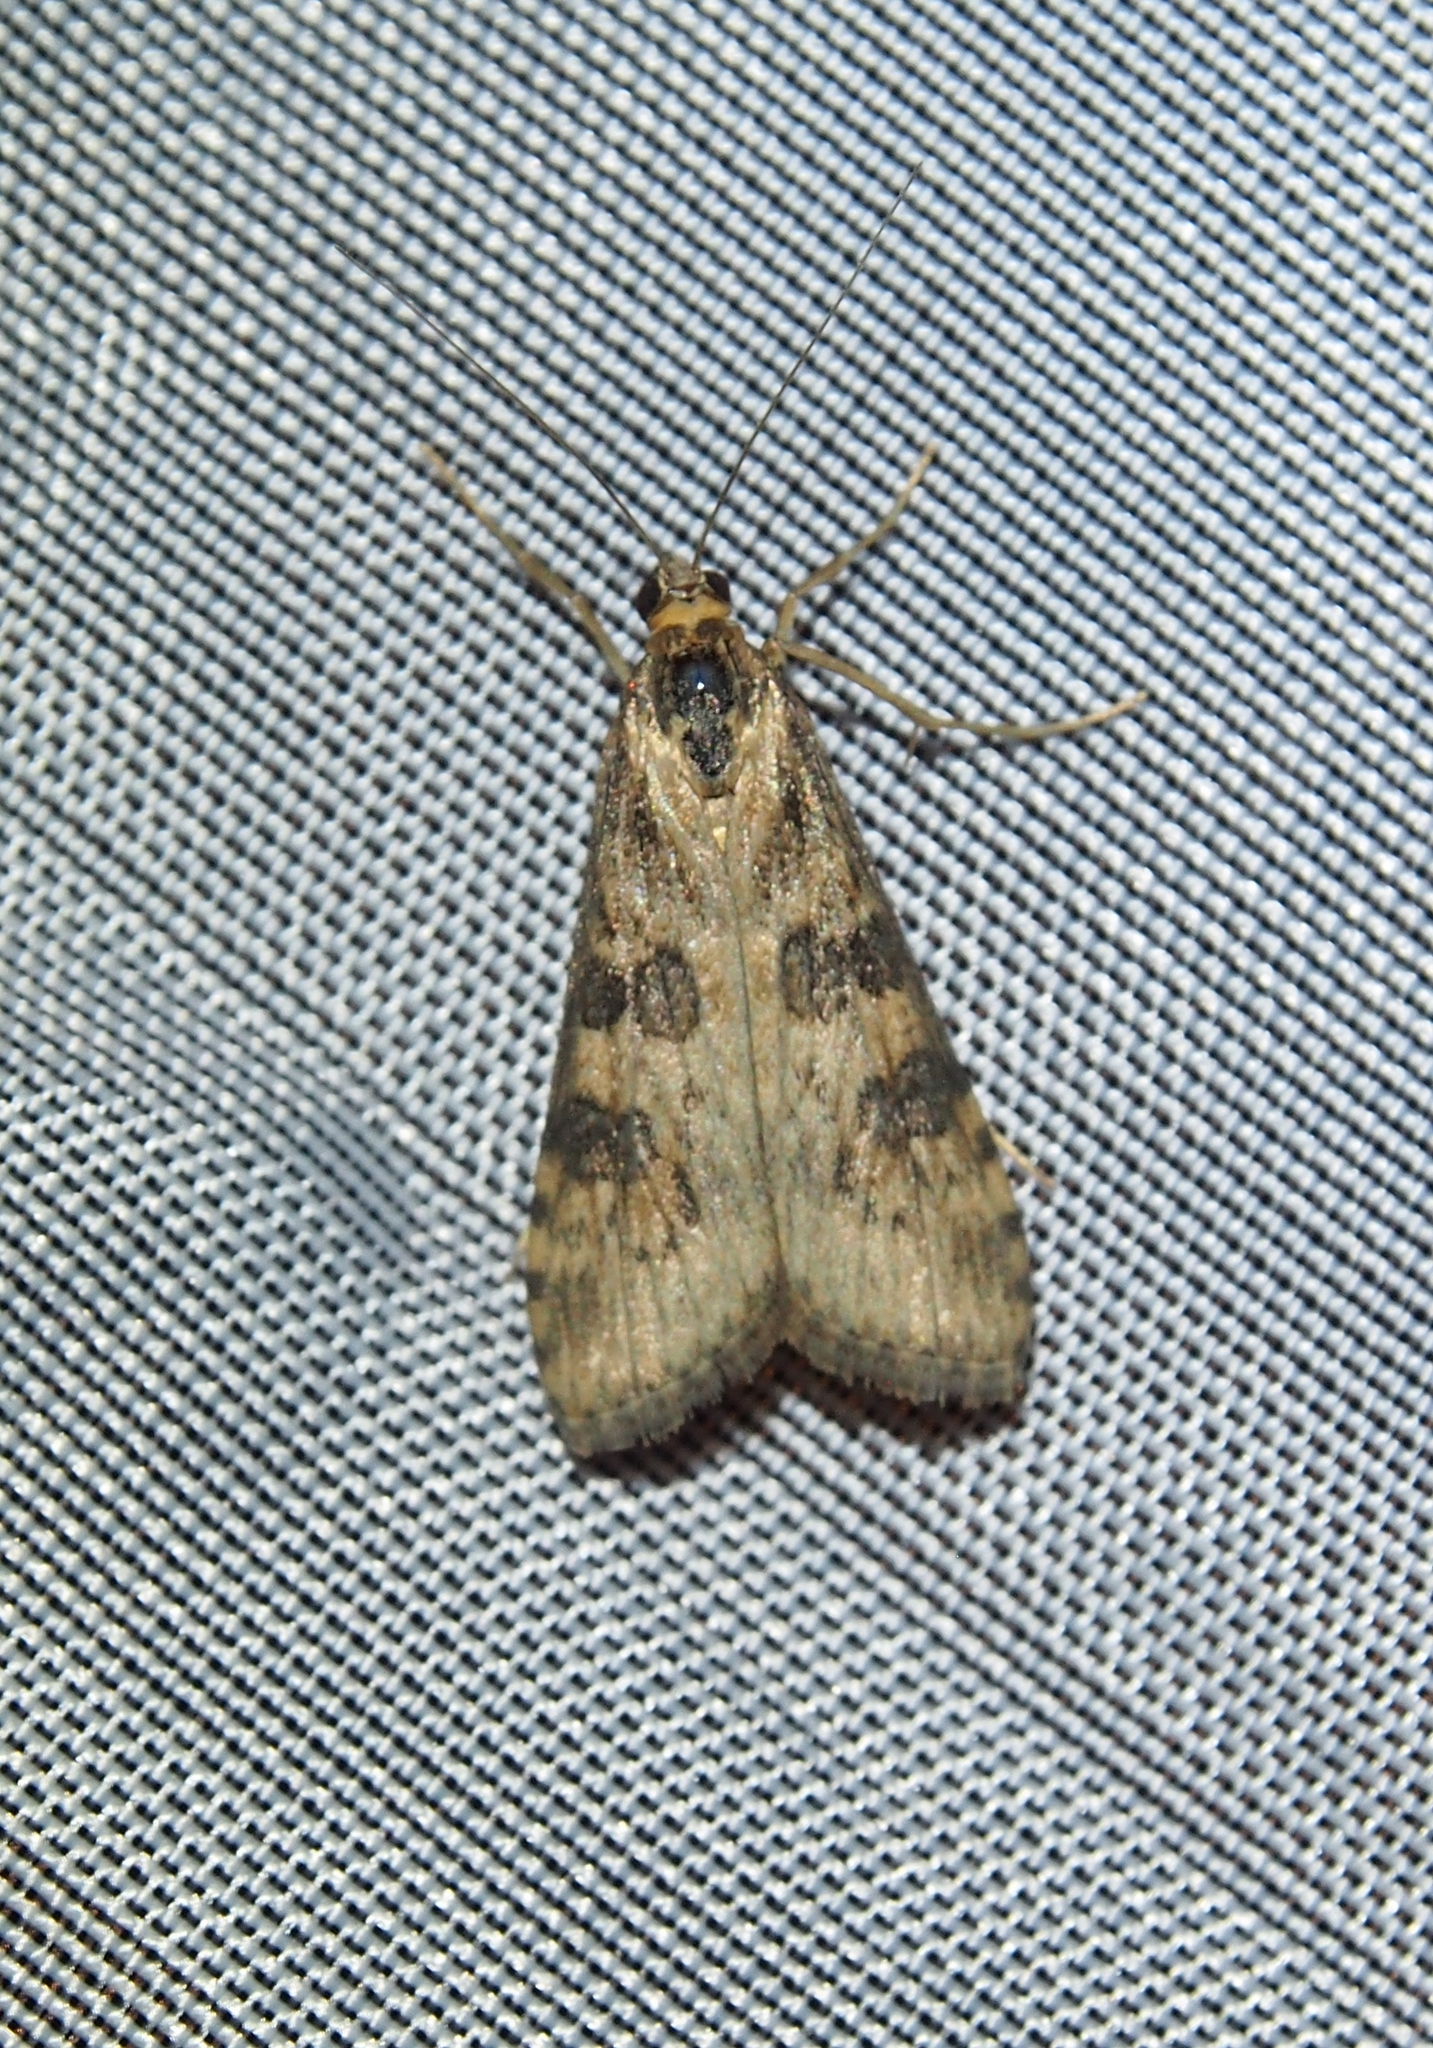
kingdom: Animalia
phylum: Arthropoda
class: Insecta
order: Lepidoptera
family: Crambidae
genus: Nomophila
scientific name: Nomophila nearctica
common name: American rush veneer
